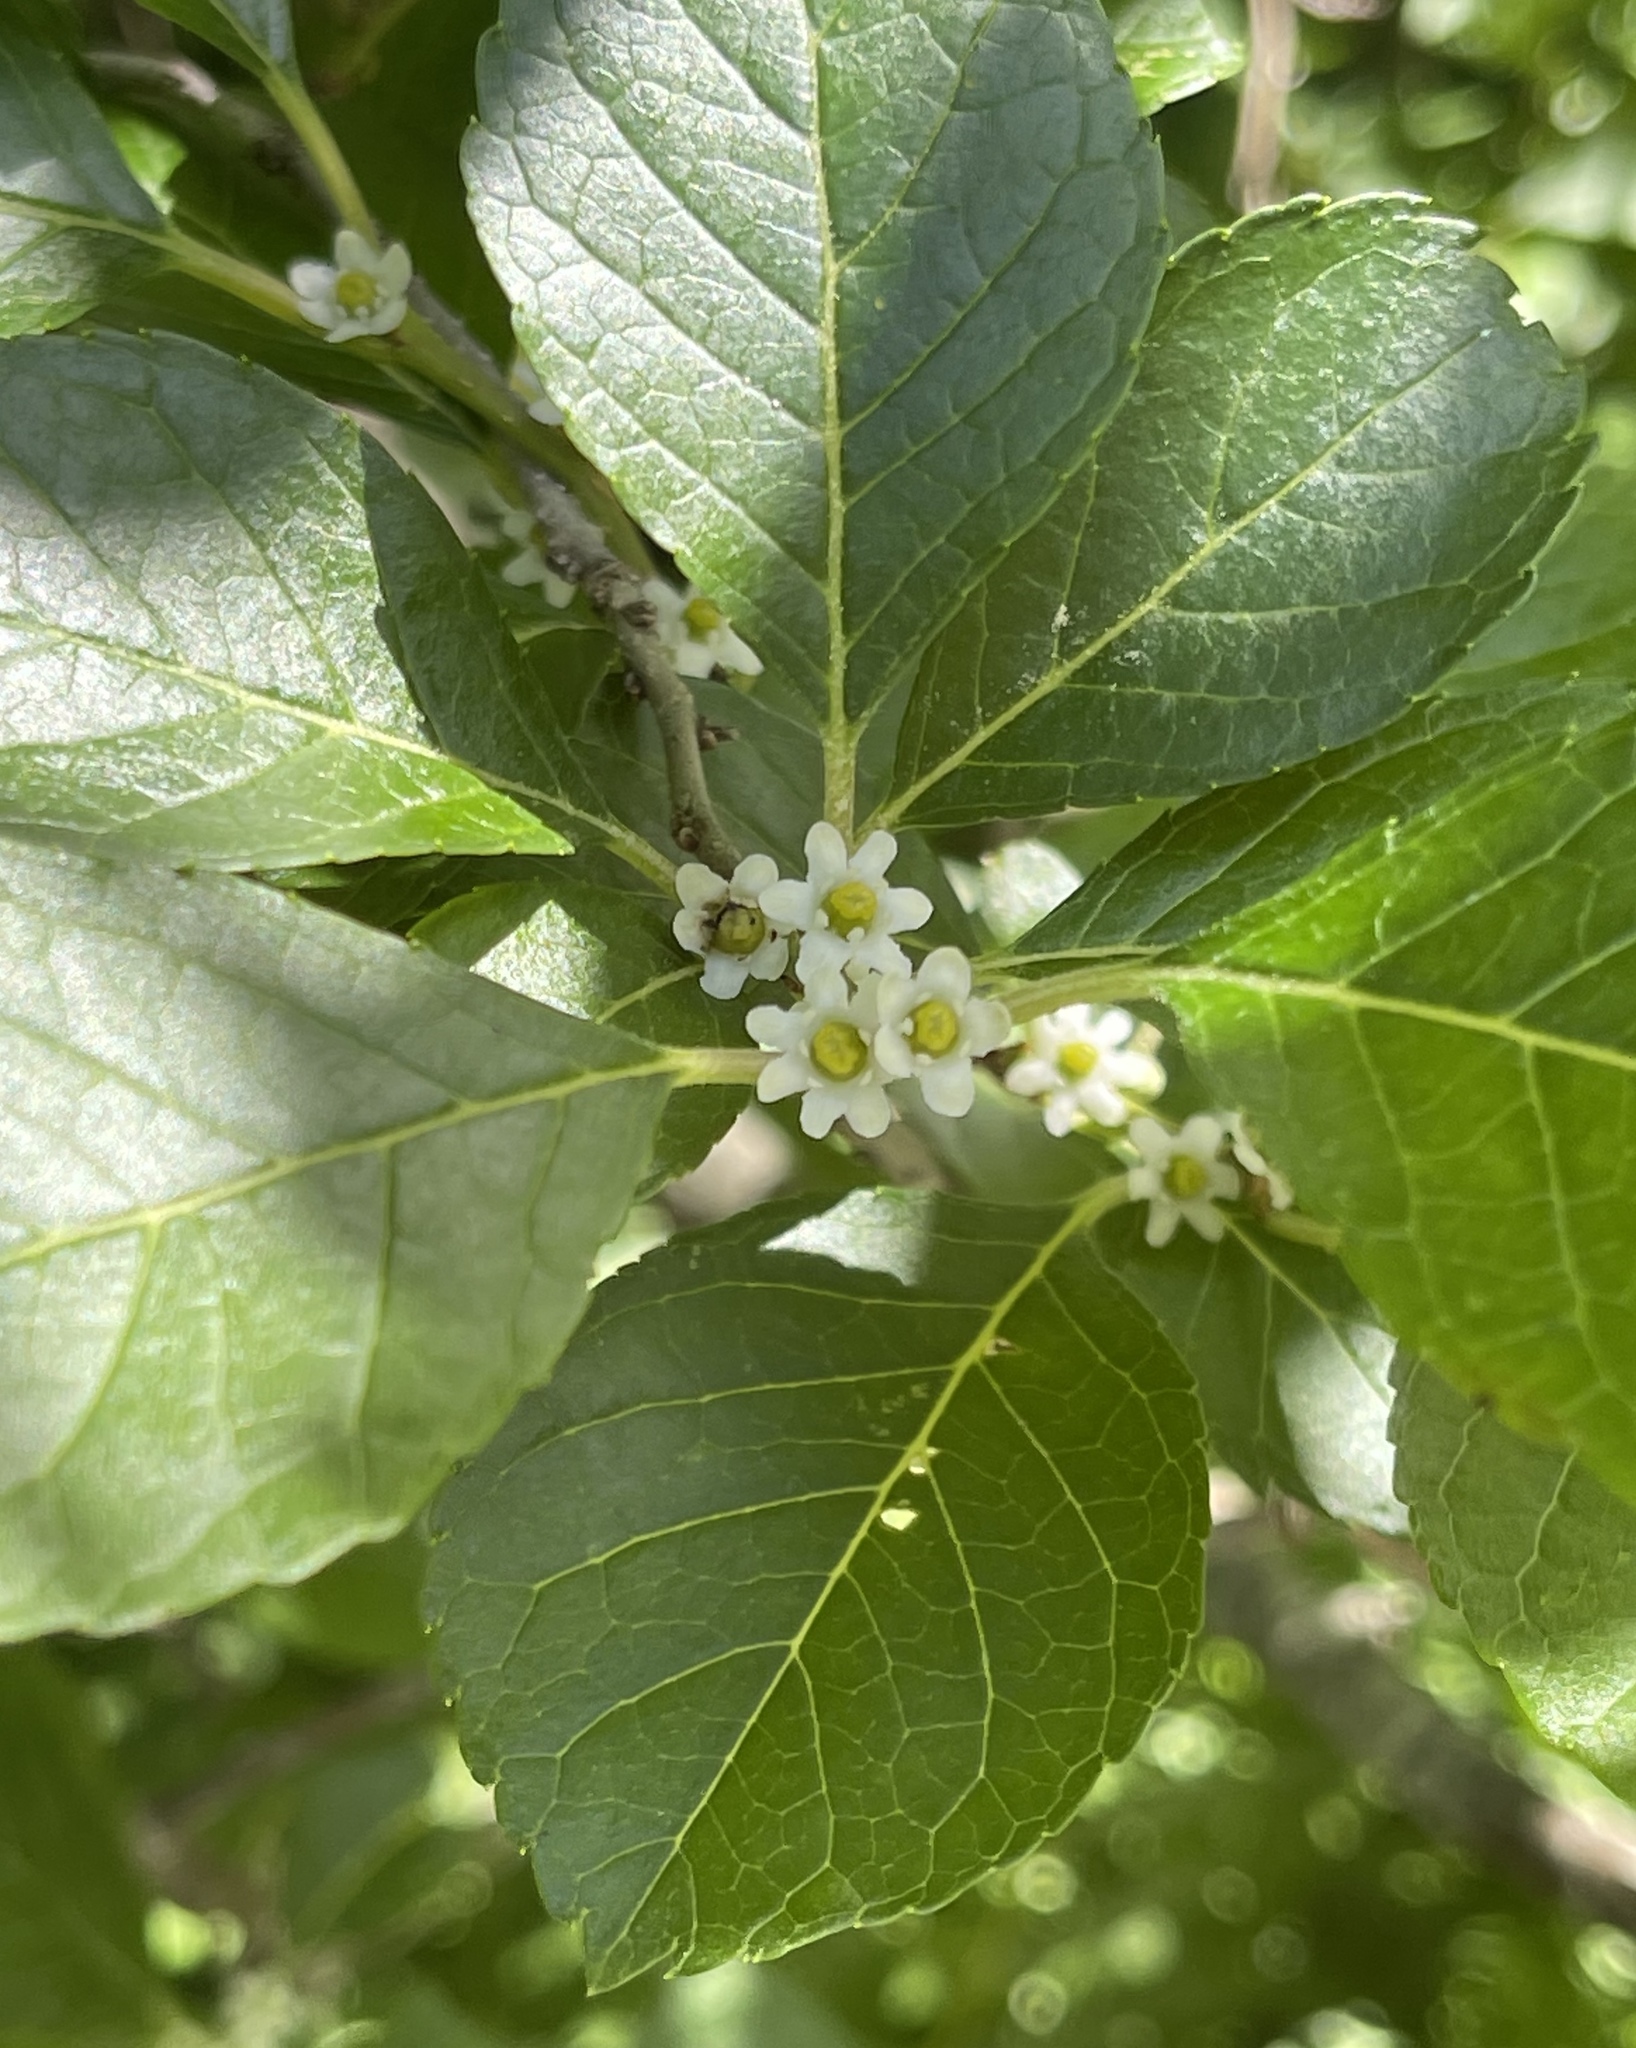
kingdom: Plantae
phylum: Tracheophyta
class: Magnoliopsida
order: Aquifoliales
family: Aquifoliaceae
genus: Ilex
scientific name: Ilex verticillata
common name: Virginia winterberry
